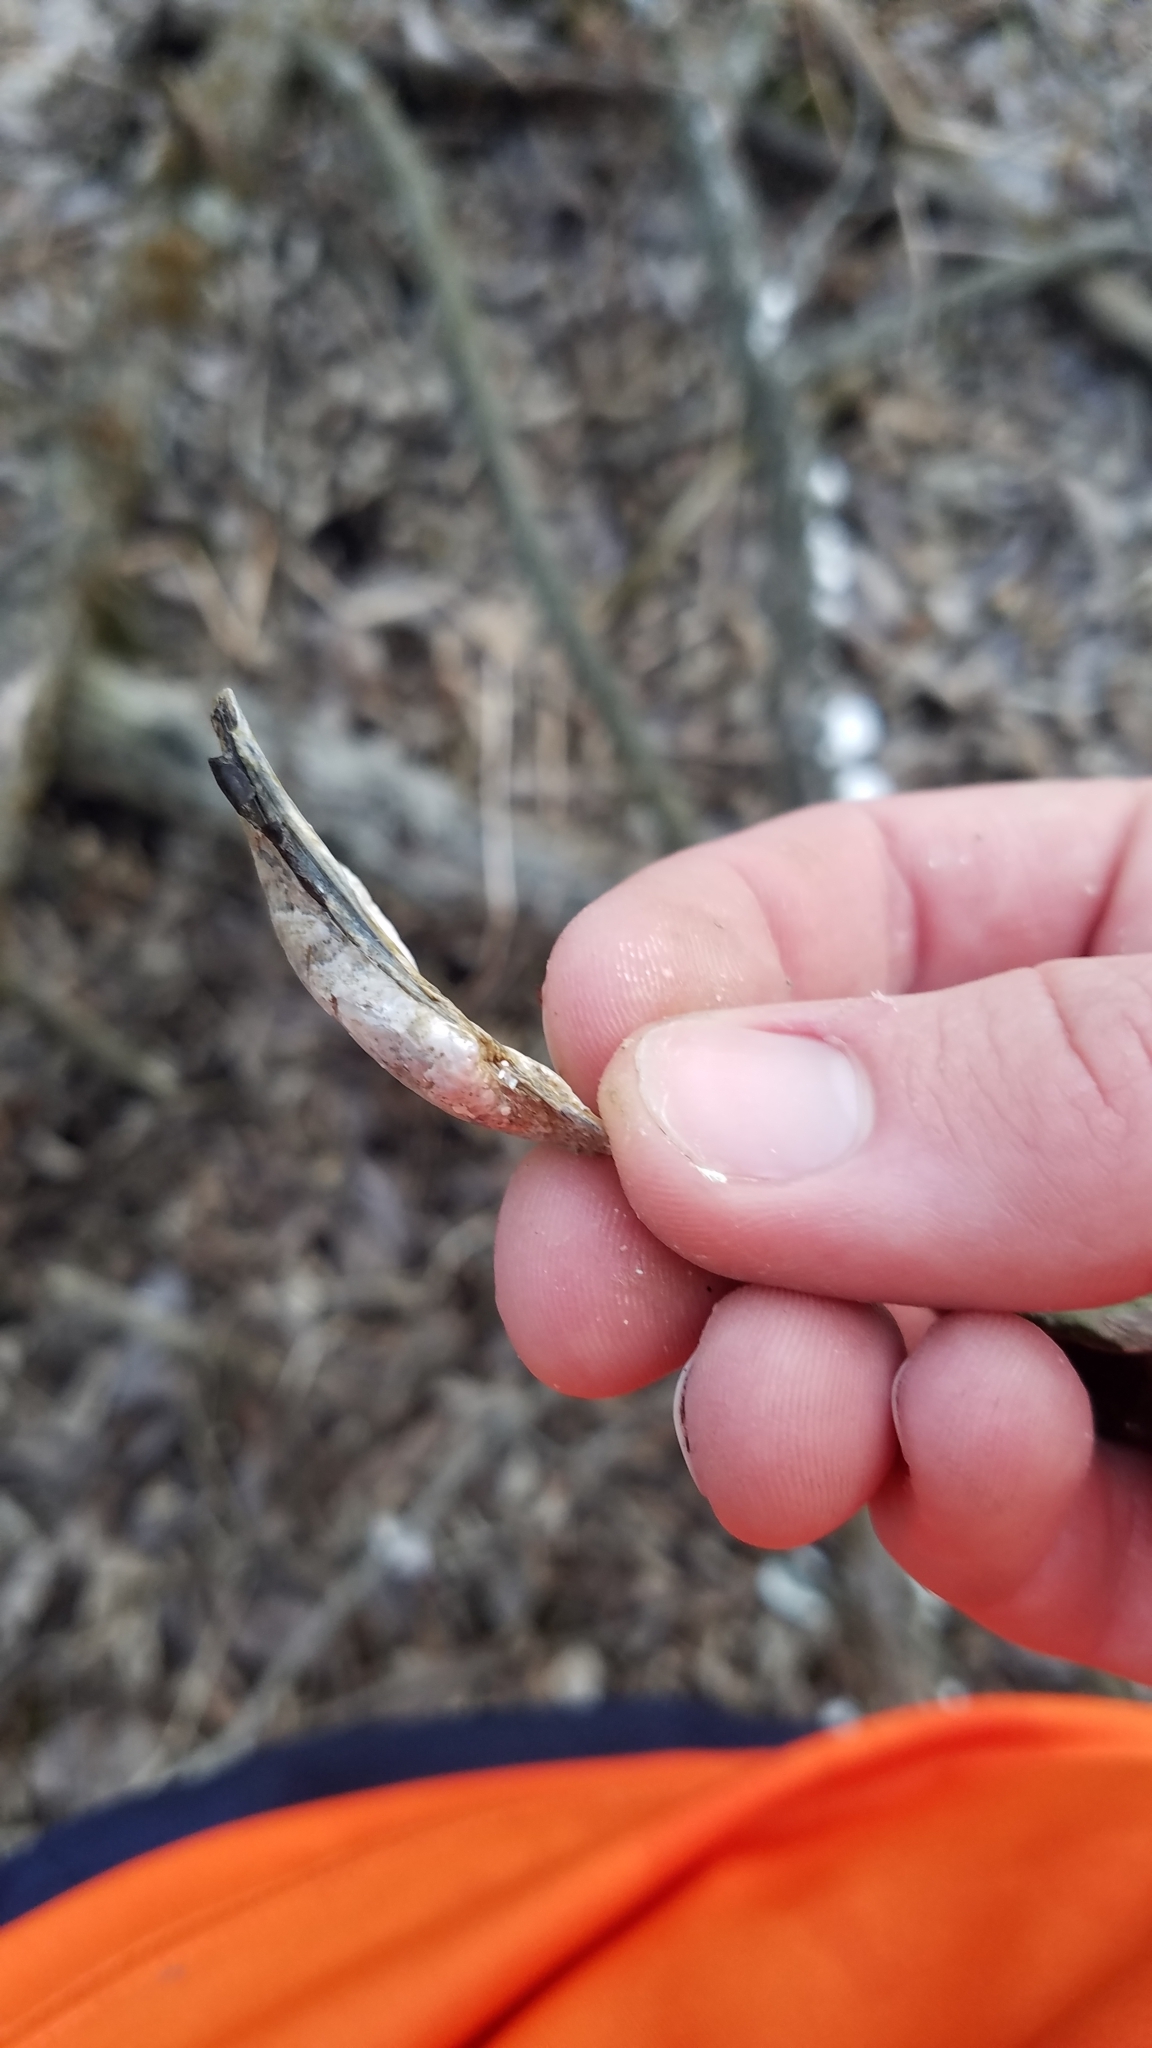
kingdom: Animalia
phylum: Mollusca
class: Bivalvia
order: Unionida
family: Unionidae
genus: Strophitus
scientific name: Strophitus undulatus
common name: Creeper
